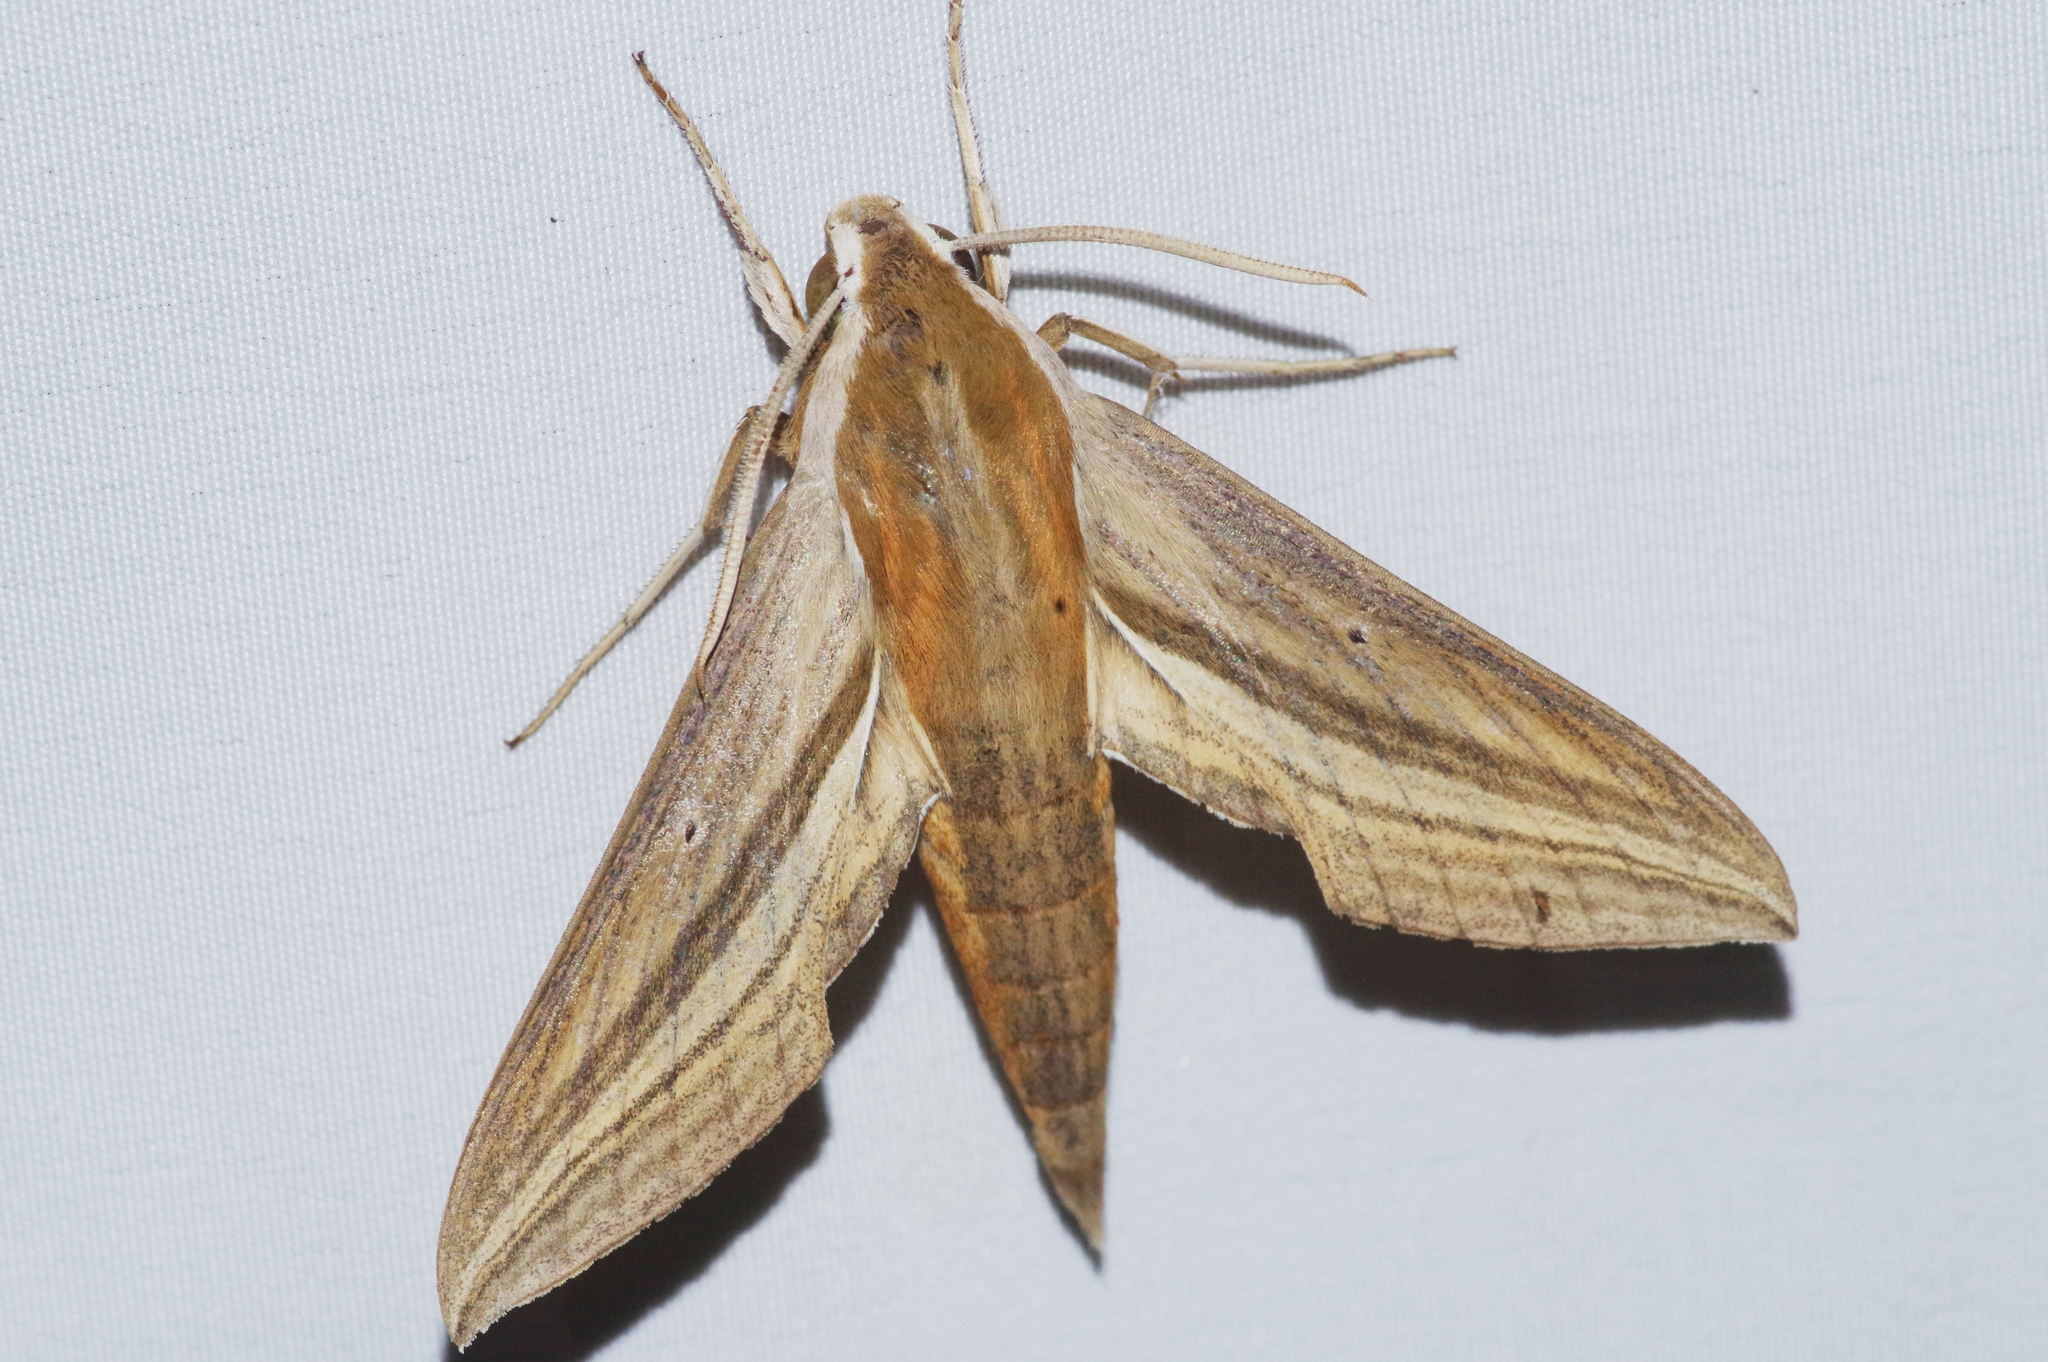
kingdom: Animalia
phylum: Arthropoda
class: Insecta
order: Lepidoptera
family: Sphingidae
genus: Theretra
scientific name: Theretra japonica
